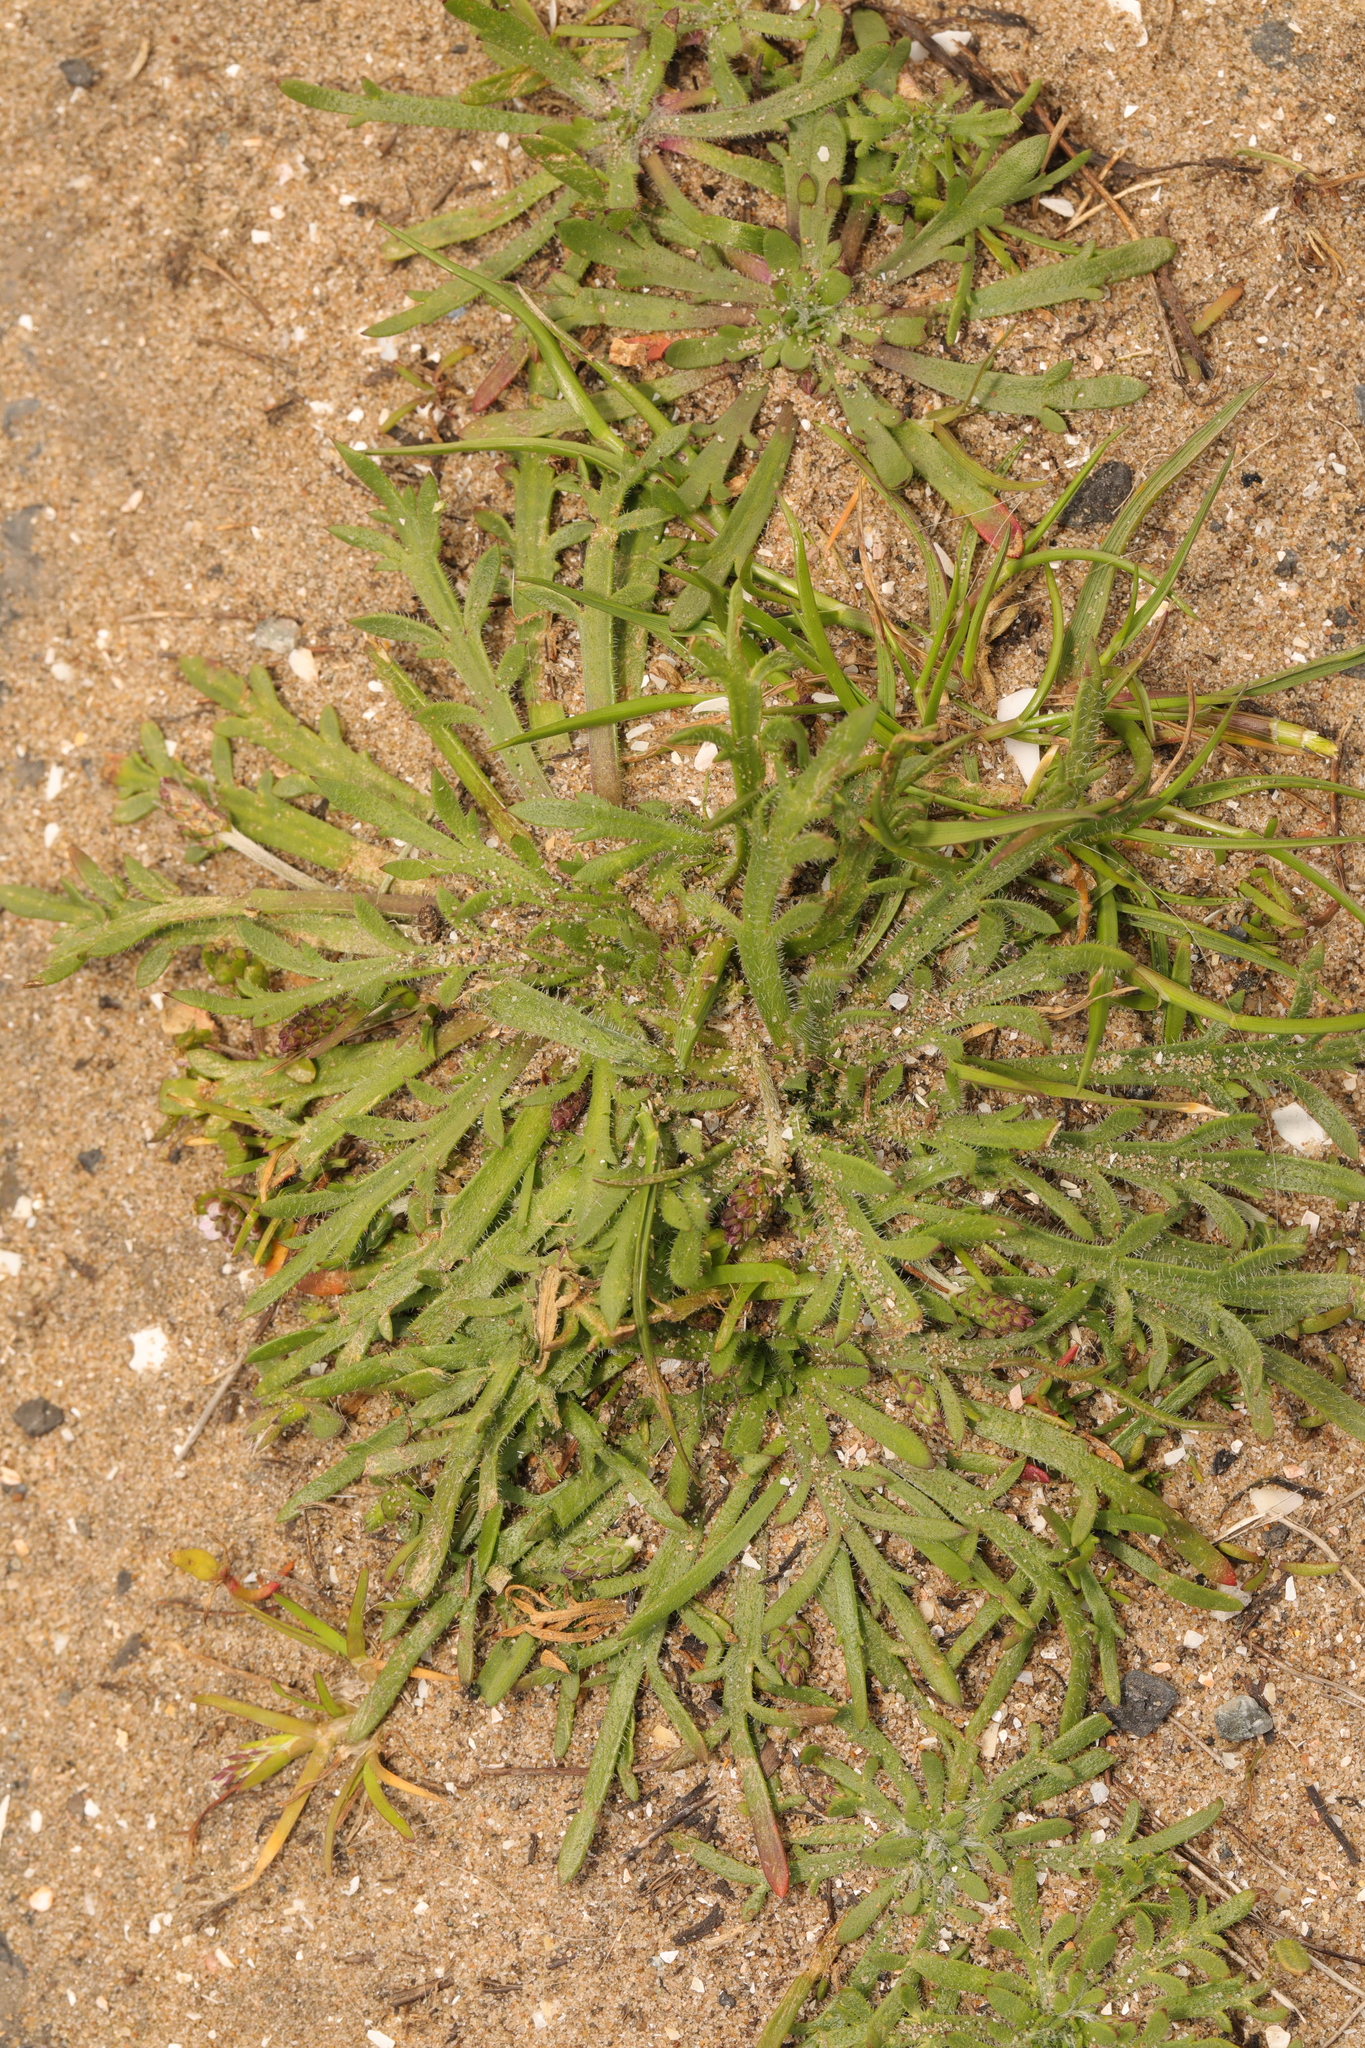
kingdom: Plantae
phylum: Tracheophyta
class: Magnoliopsida
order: Lamiales
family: Plantaginaceae
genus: Plantago
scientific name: Plantago coronopus
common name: Buck's-horn plantain
